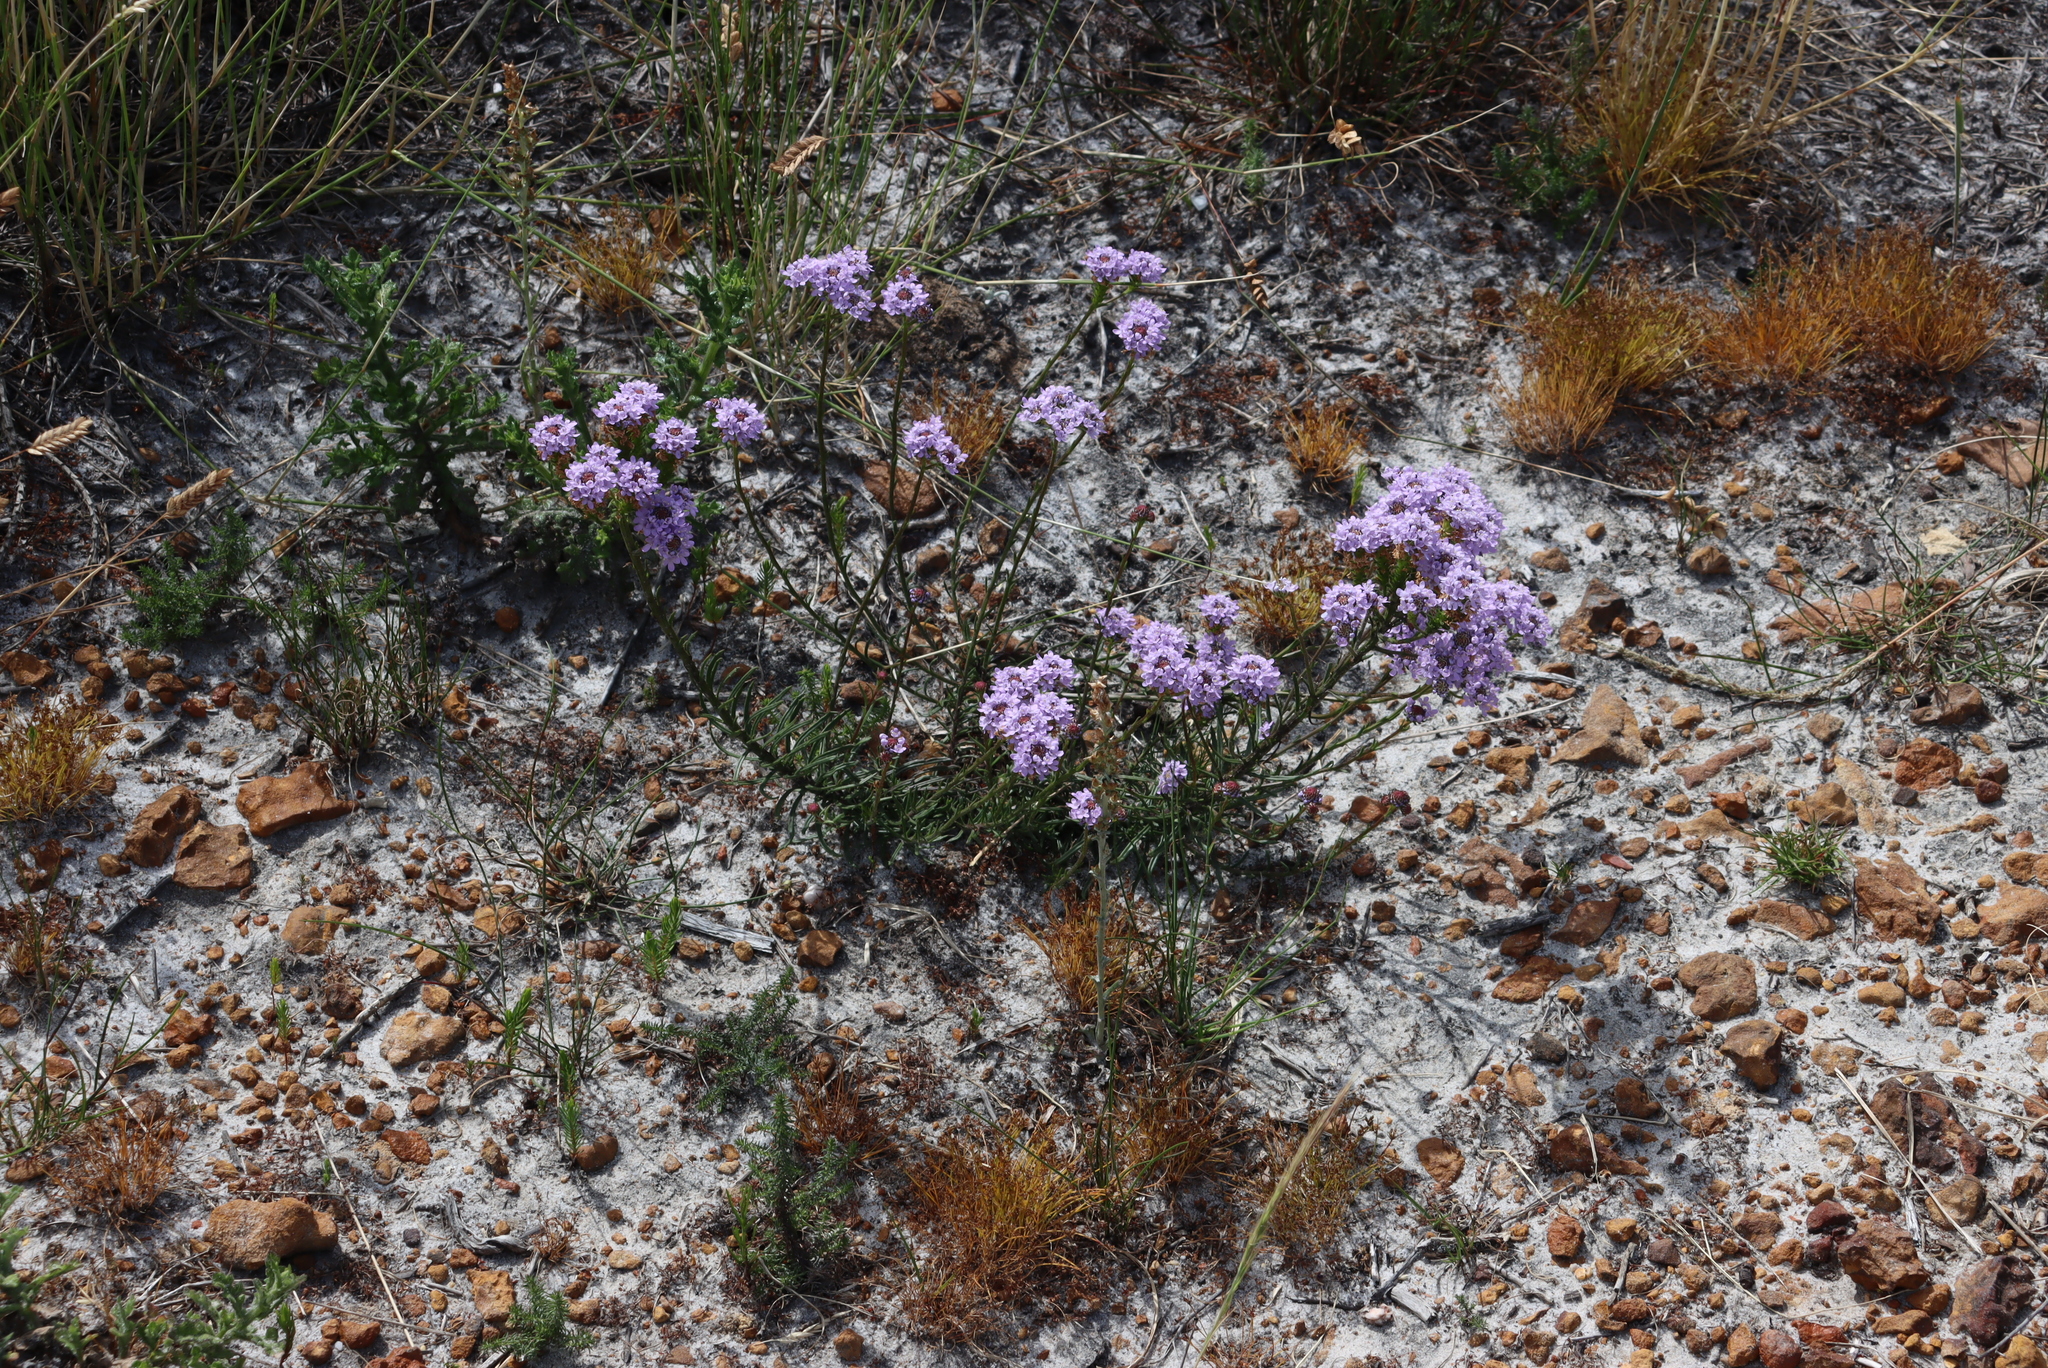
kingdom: Plantae
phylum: Tracheophyta
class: Magnoliopsida
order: Lamiales
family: Scrophulariaceae
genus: Pseudoselago
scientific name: Pseudoselago spuria
